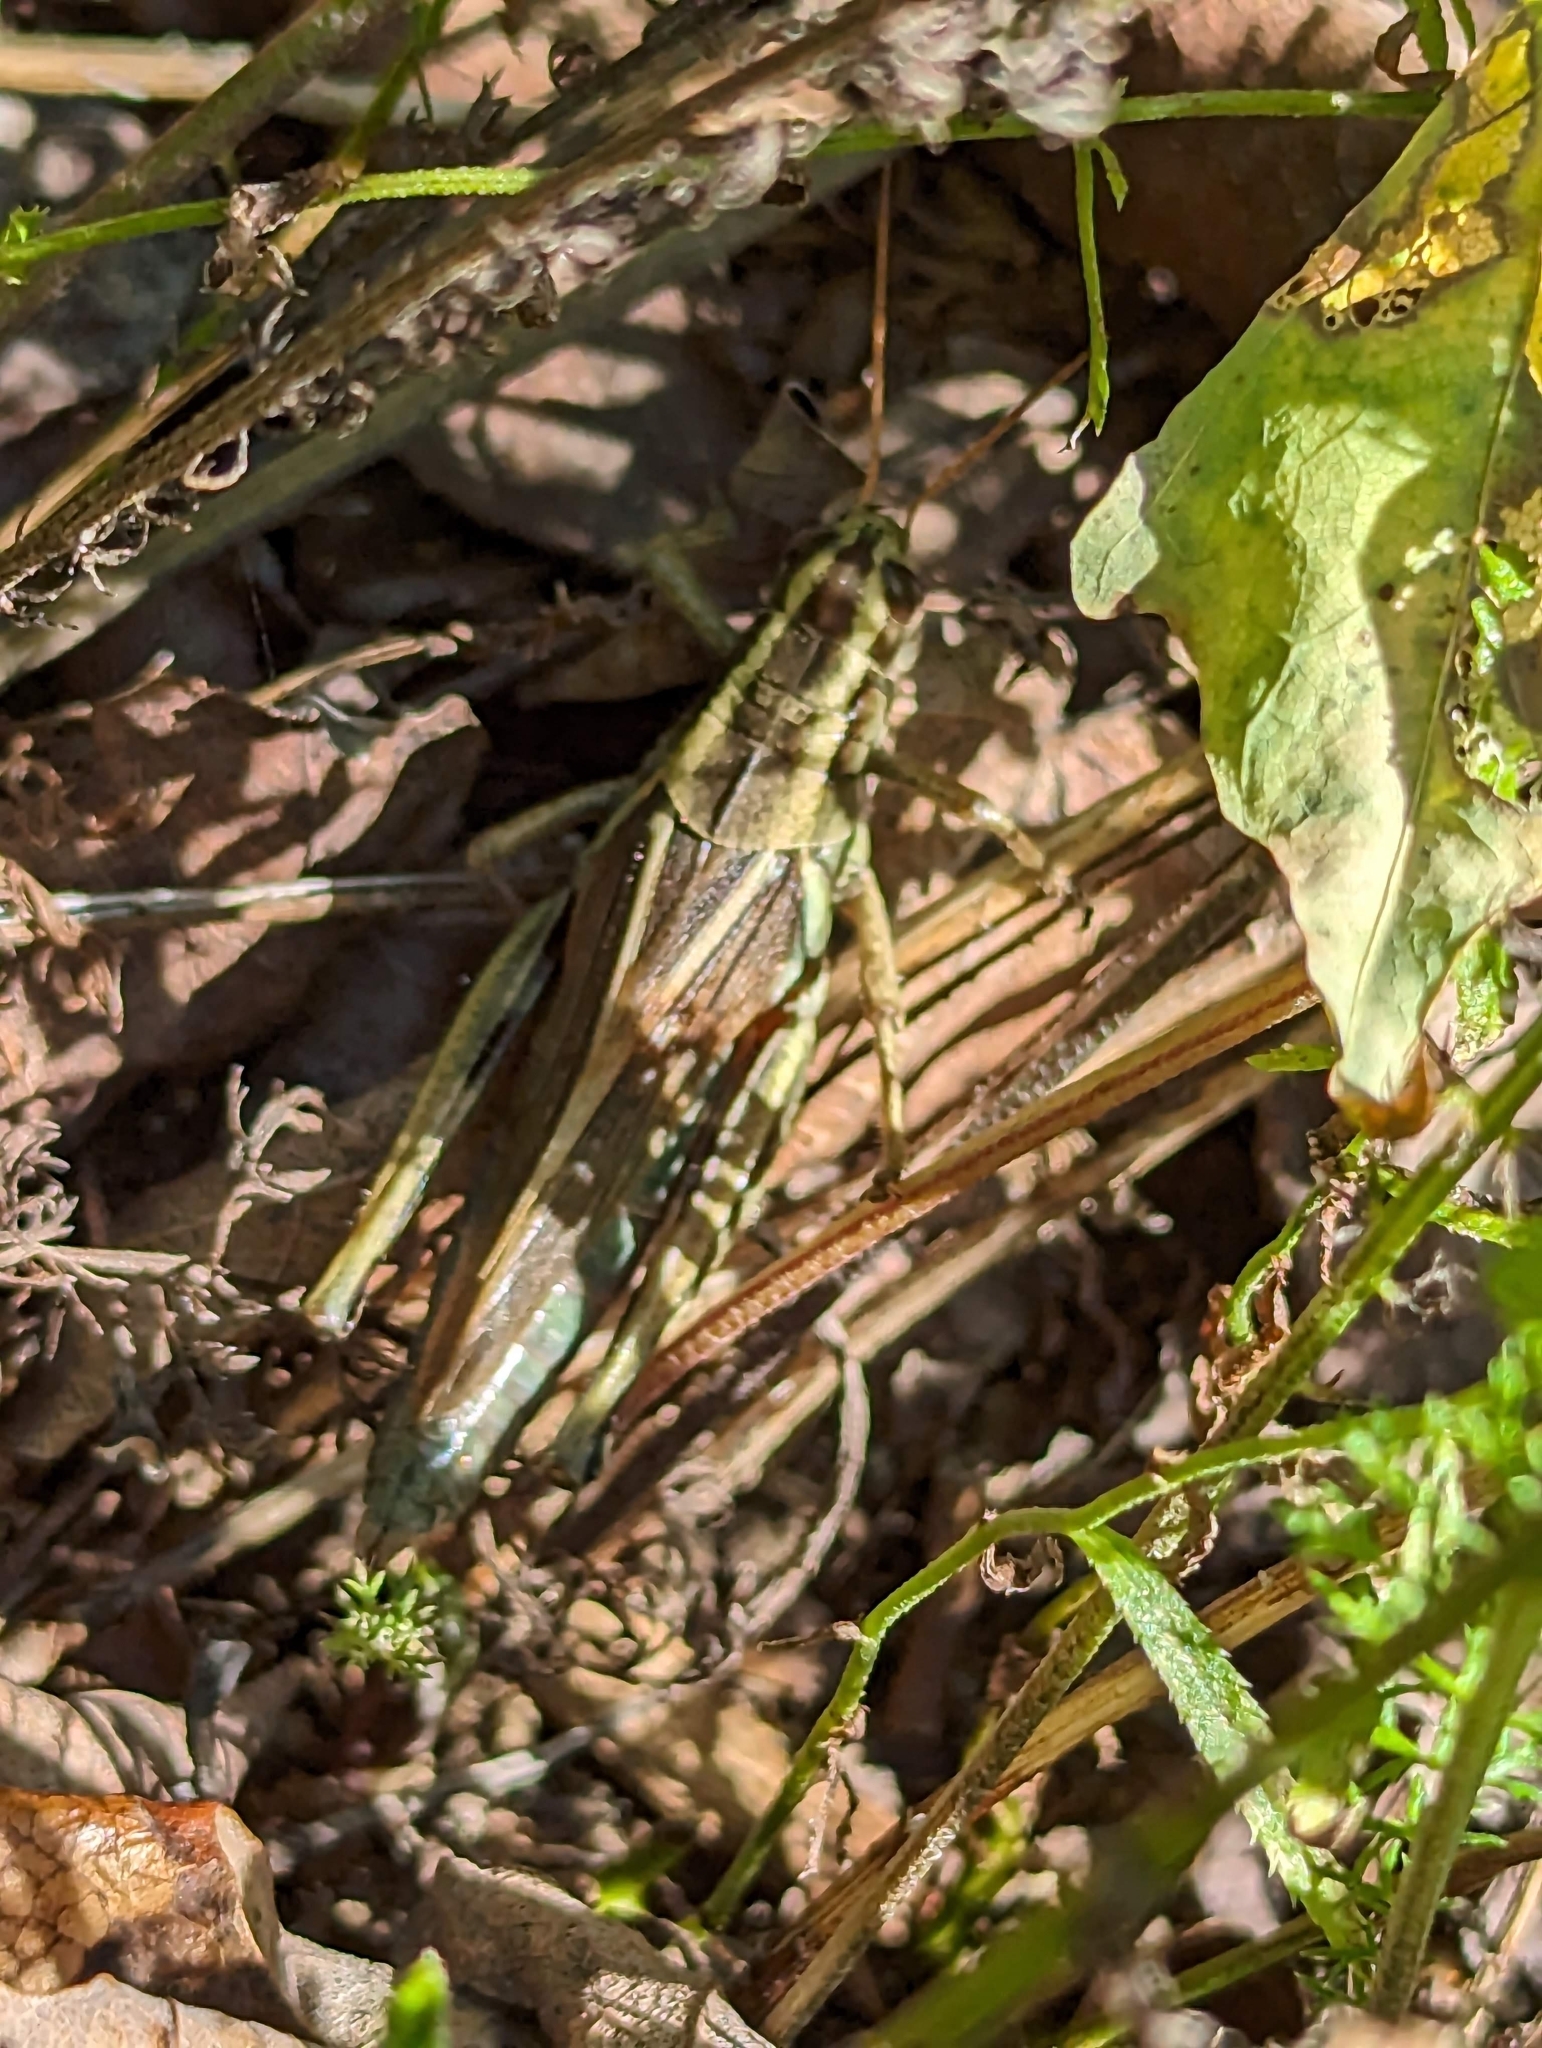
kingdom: Animalia
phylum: Arthropoda
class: Insecta
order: Orthoptera
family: Acrididae
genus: Melanoplus
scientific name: Melanoplus bivittatus
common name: Two-striped grasshopper
